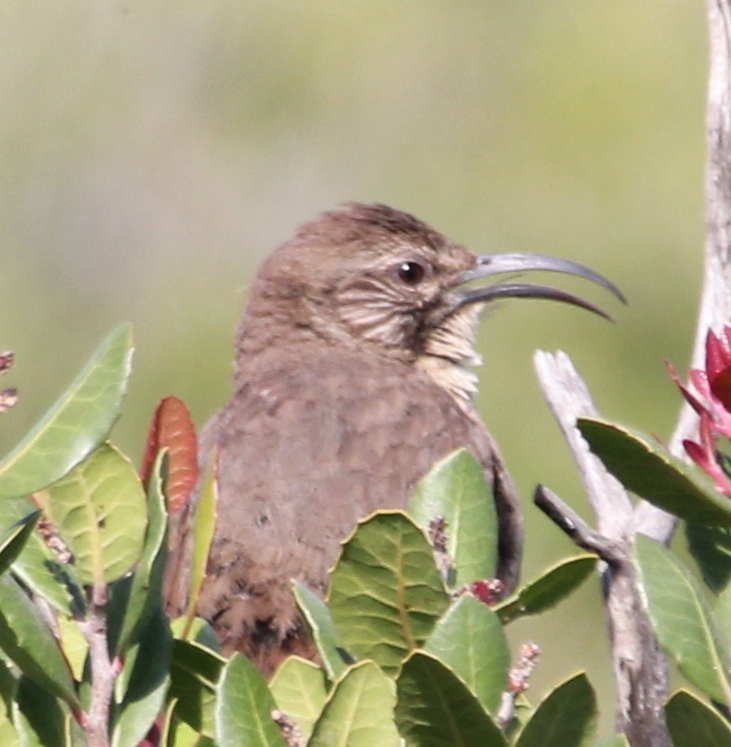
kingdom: Animalia
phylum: Chordata
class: Aves
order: Passeriformes
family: Mimidae
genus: Toxostoma
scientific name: Toxostoma redivivum
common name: California thrasher
